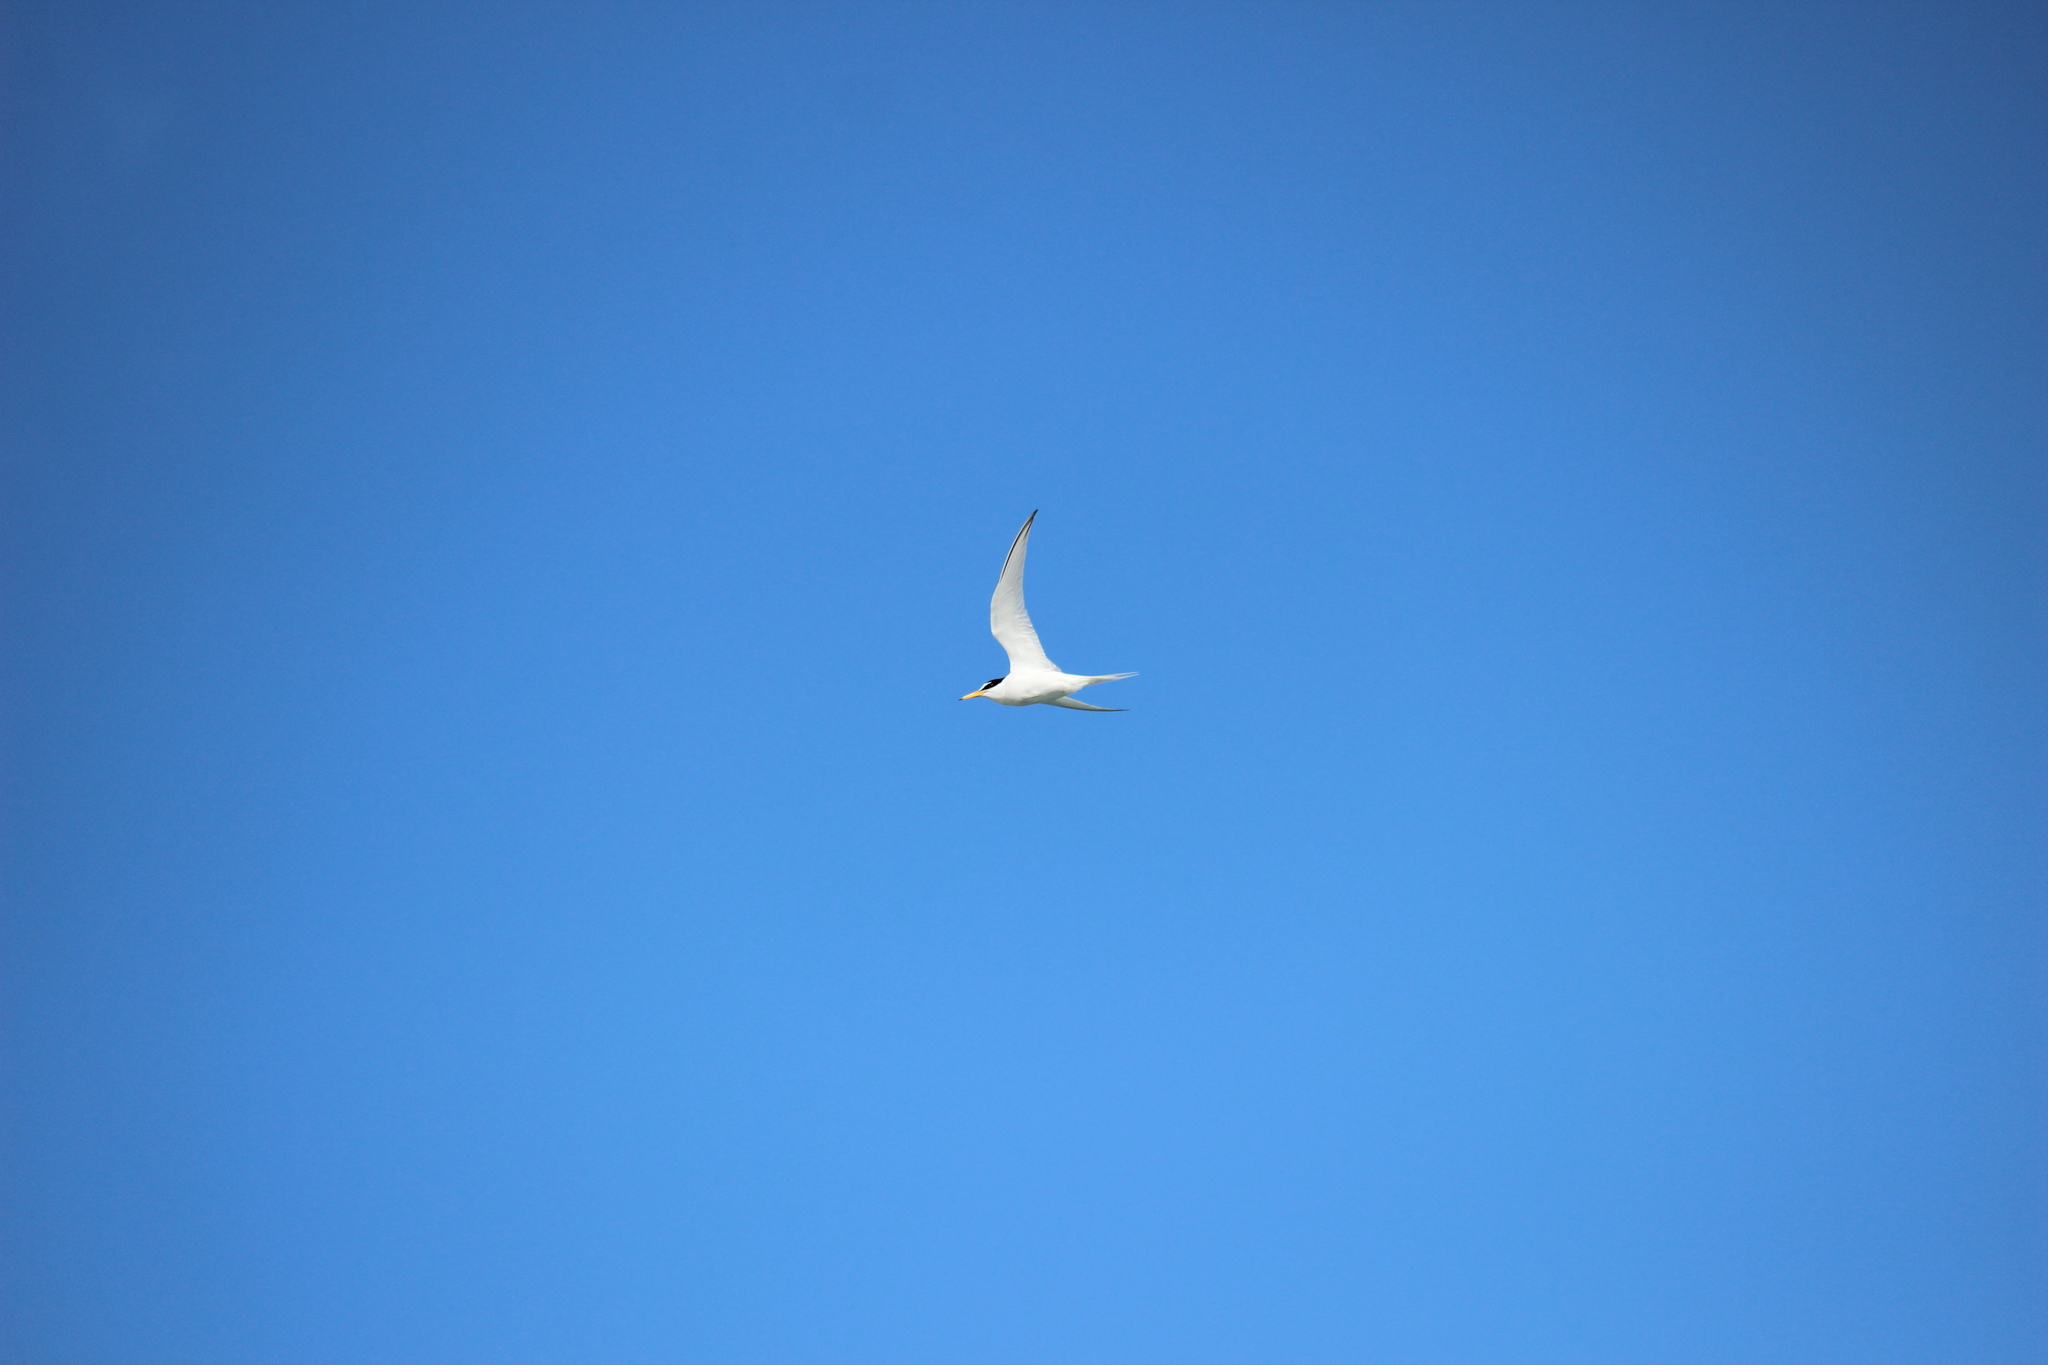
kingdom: Animalia
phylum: Chordata
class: Aves
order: Charadriiformes
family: Laridae
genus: Sternula
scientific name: Sternula albifrons
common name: Little tern
